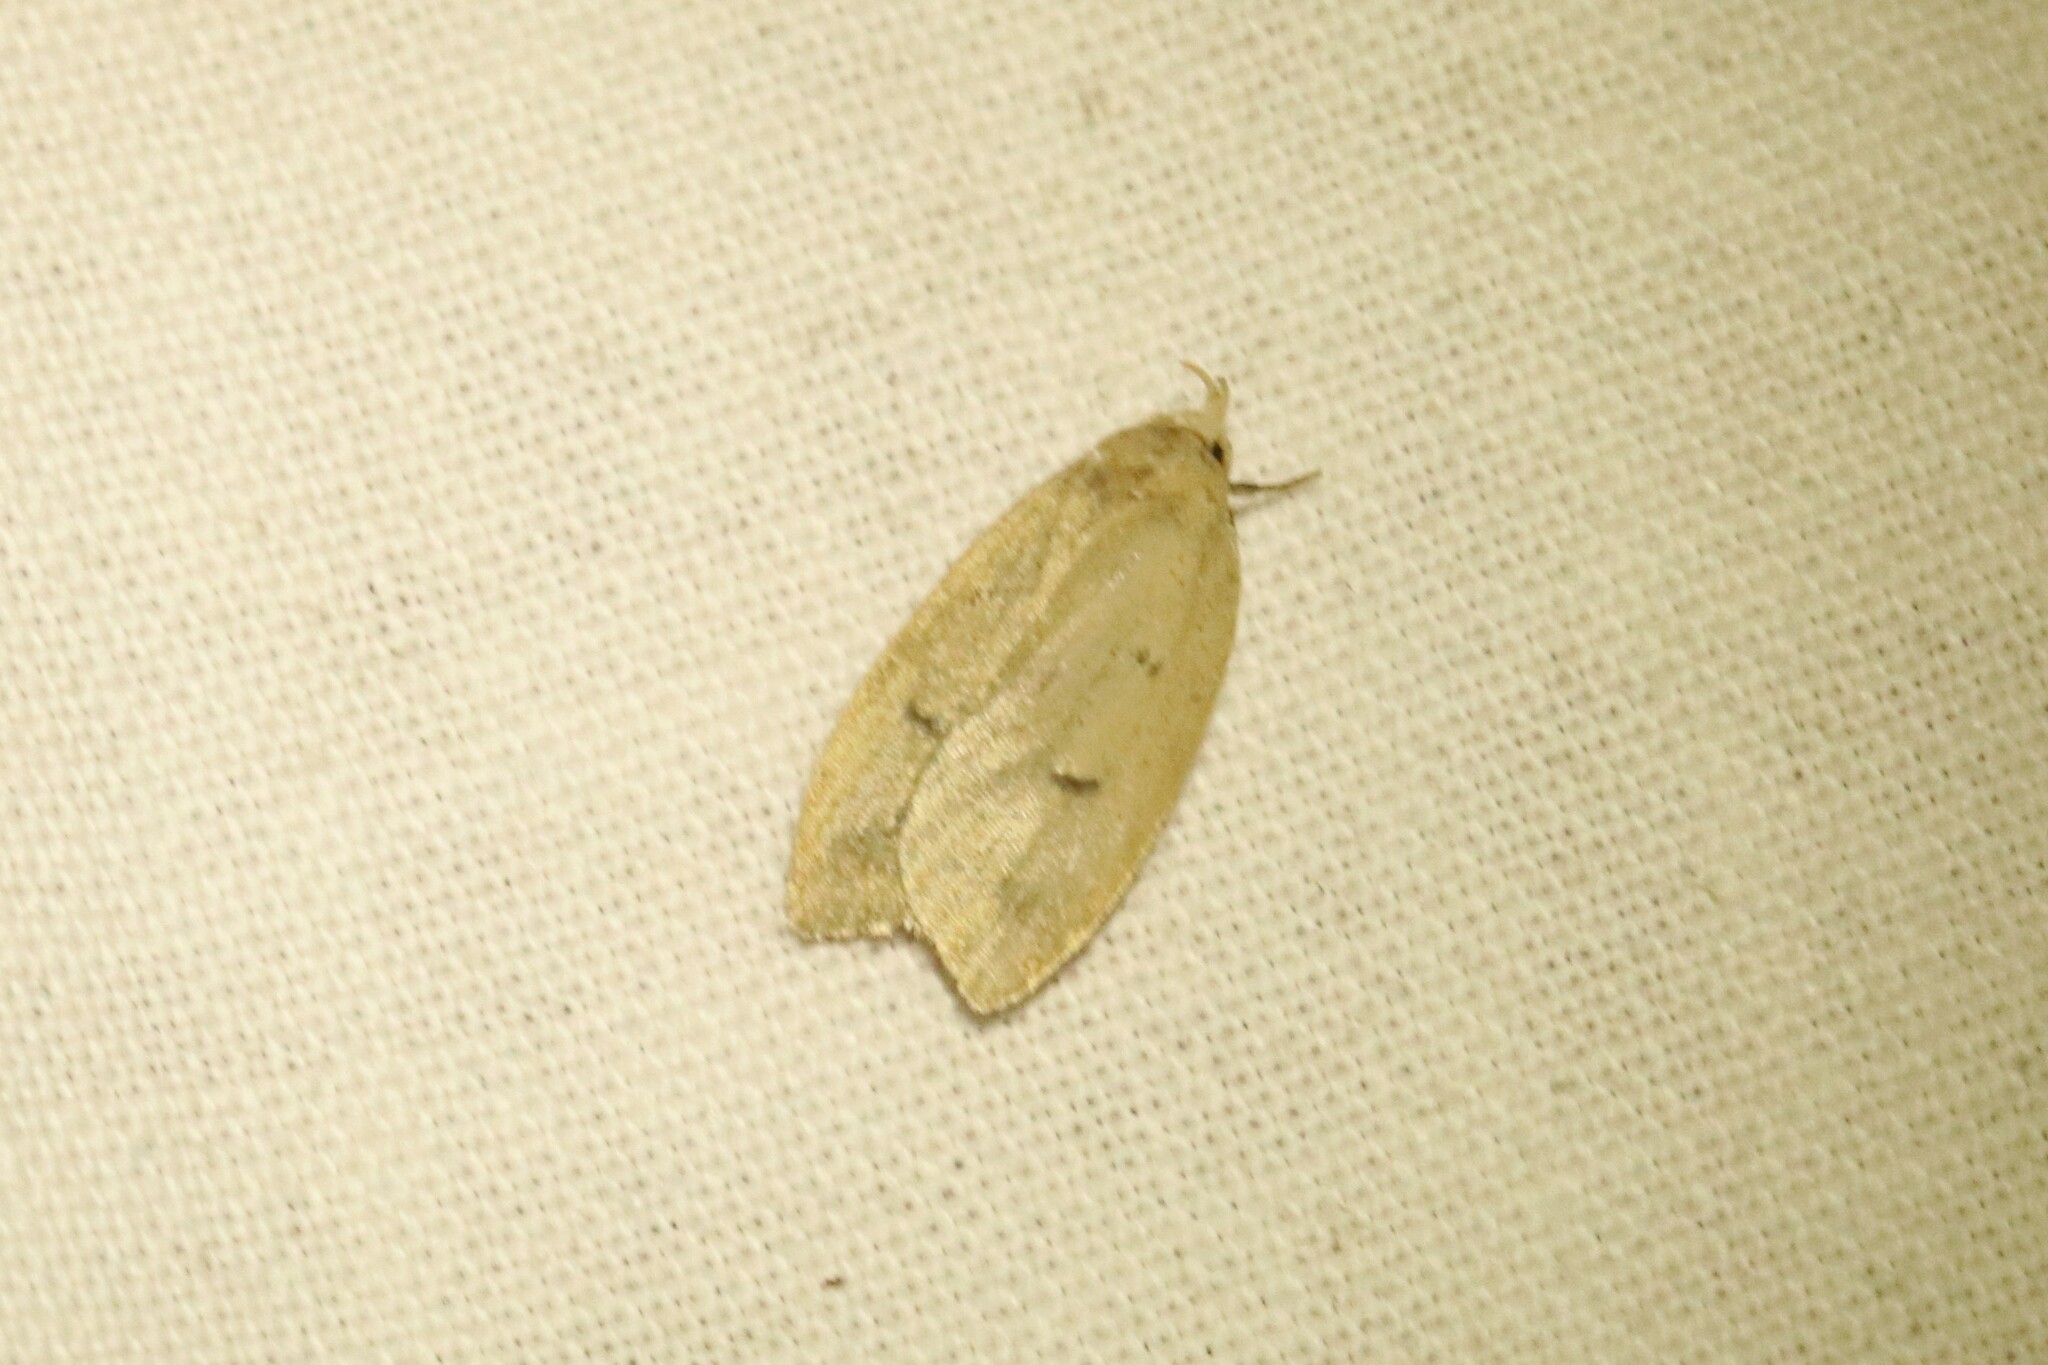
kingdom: Animalia
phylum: Arthropoda
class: Insecta
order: Lepidoptera
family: Peleopodidae
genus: Machimia
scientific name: Machimia tentoriferella
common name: Gold-striped leaftier moth
